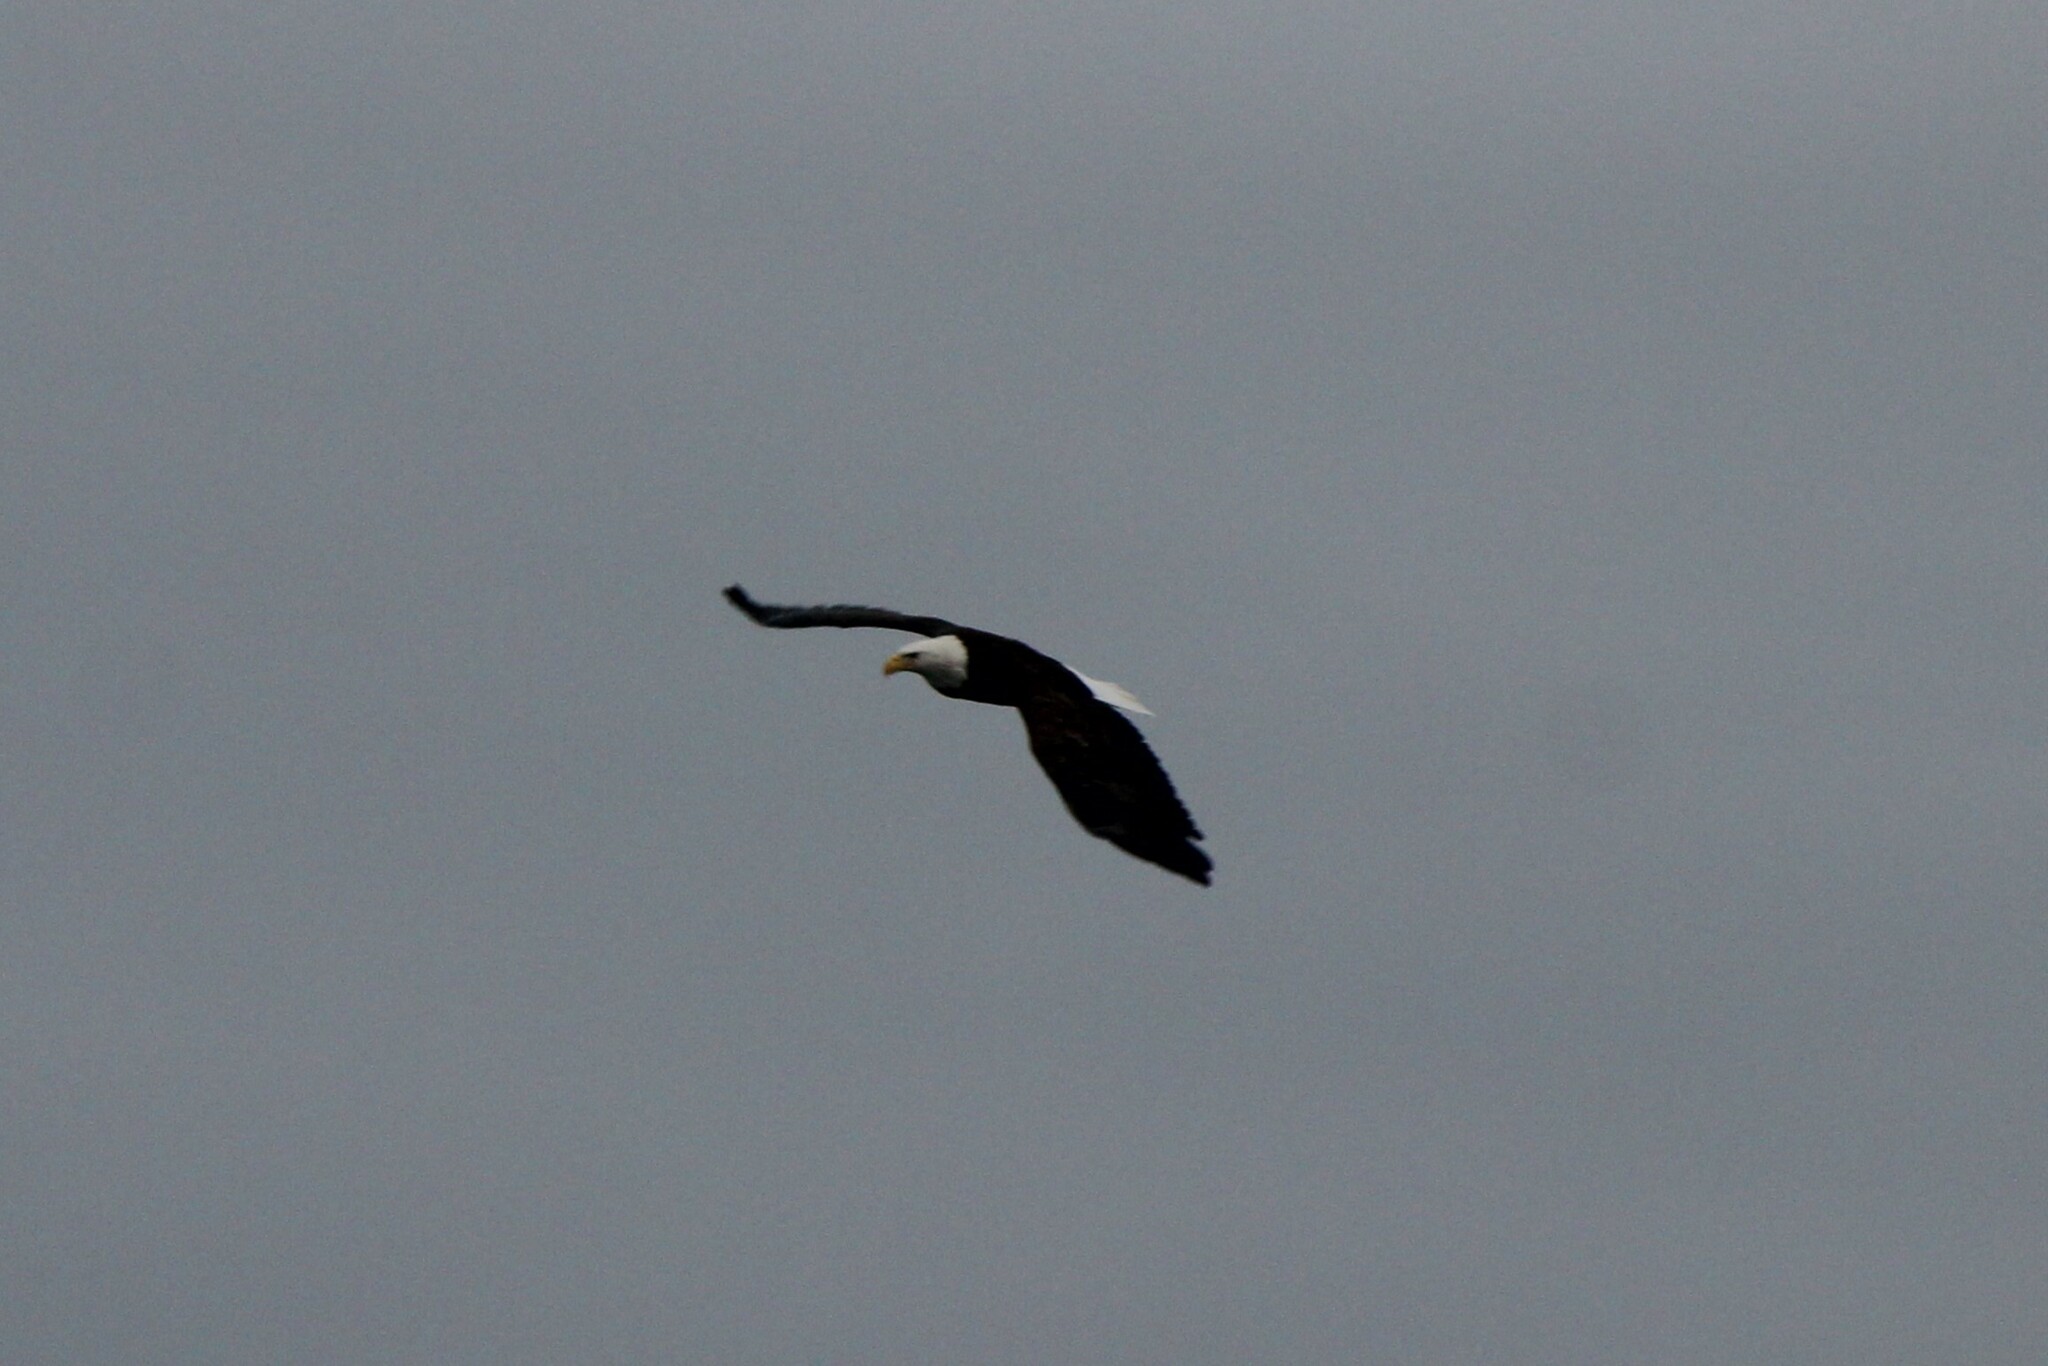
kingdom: Animalia
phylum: Chordata
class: Aves
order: Accipitriformes
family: Accipitridae
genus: Haliaeetus
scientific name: Haliaeetus leucocephalus
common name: Bald eagle
